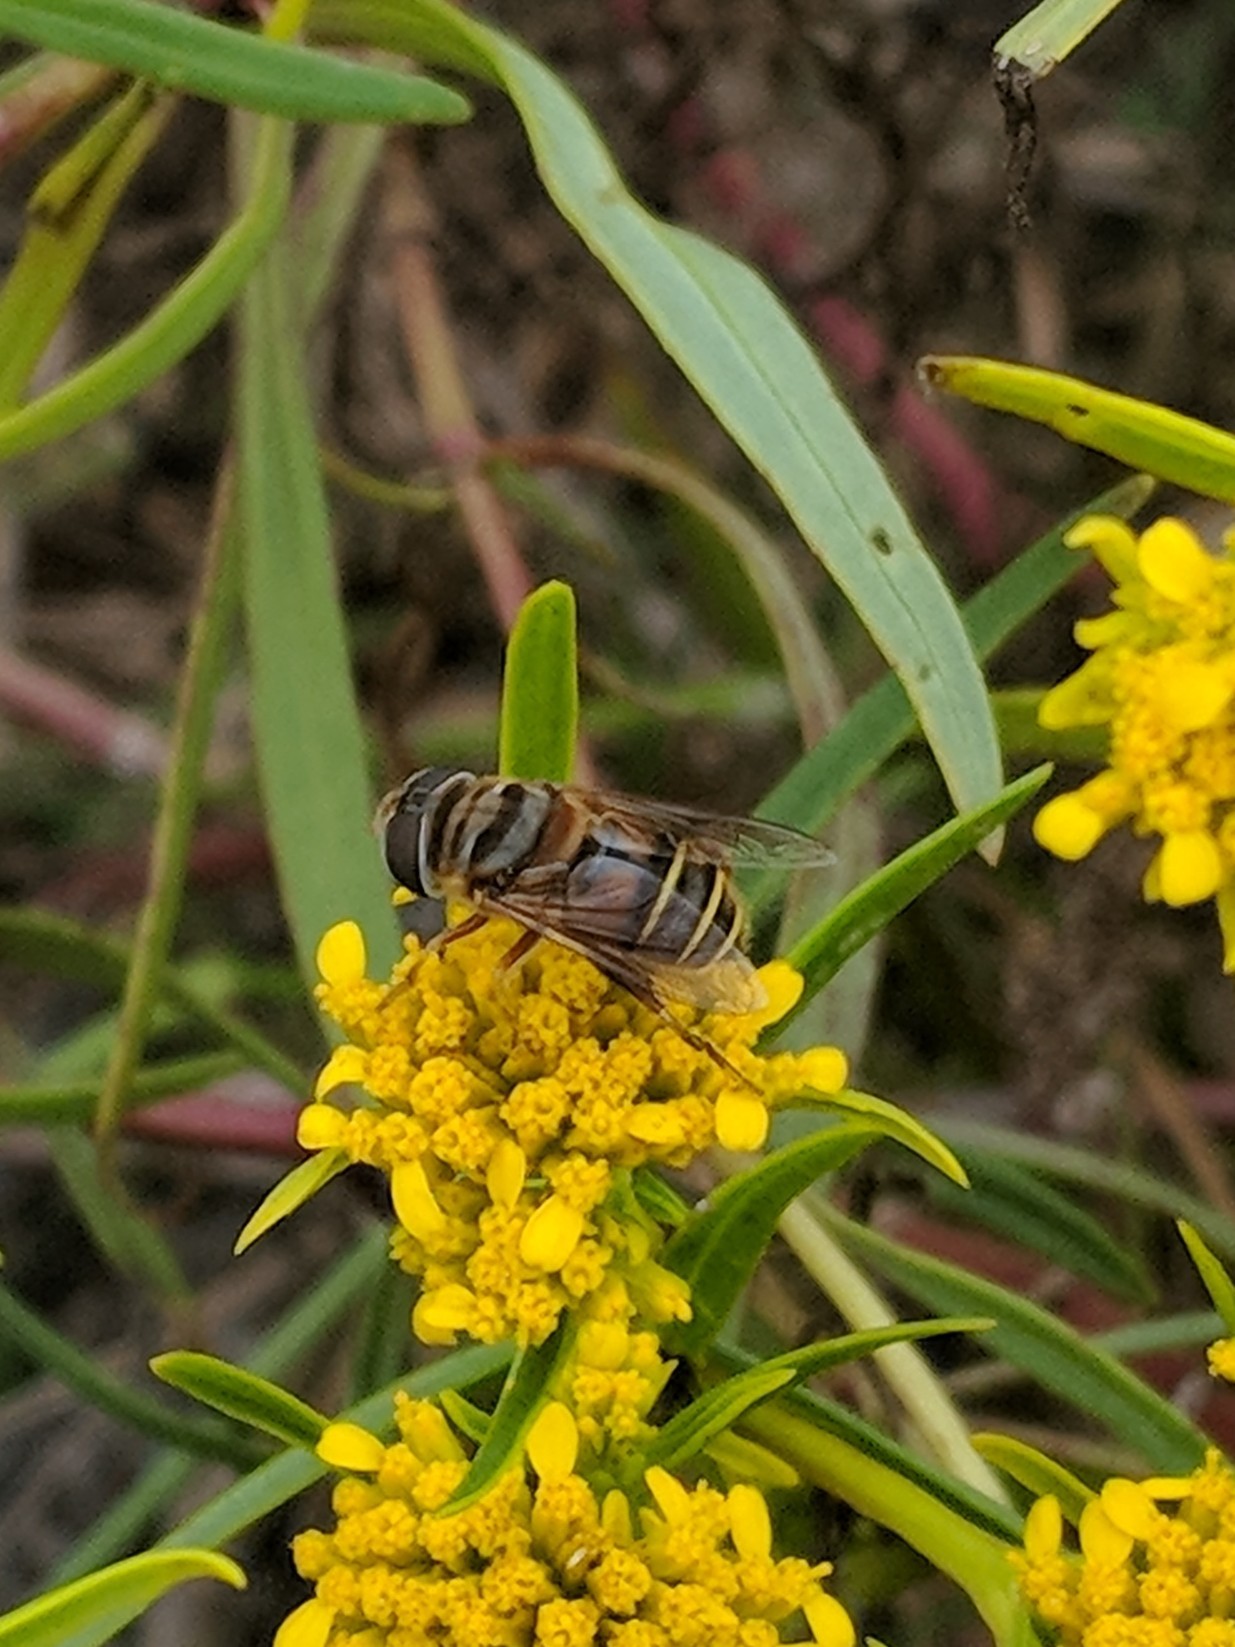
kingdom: Animalia
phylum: Arthropoda
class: Insecta
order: Diptera
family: Syrphidae
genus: Palpada
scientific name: Palpada vinetorum
